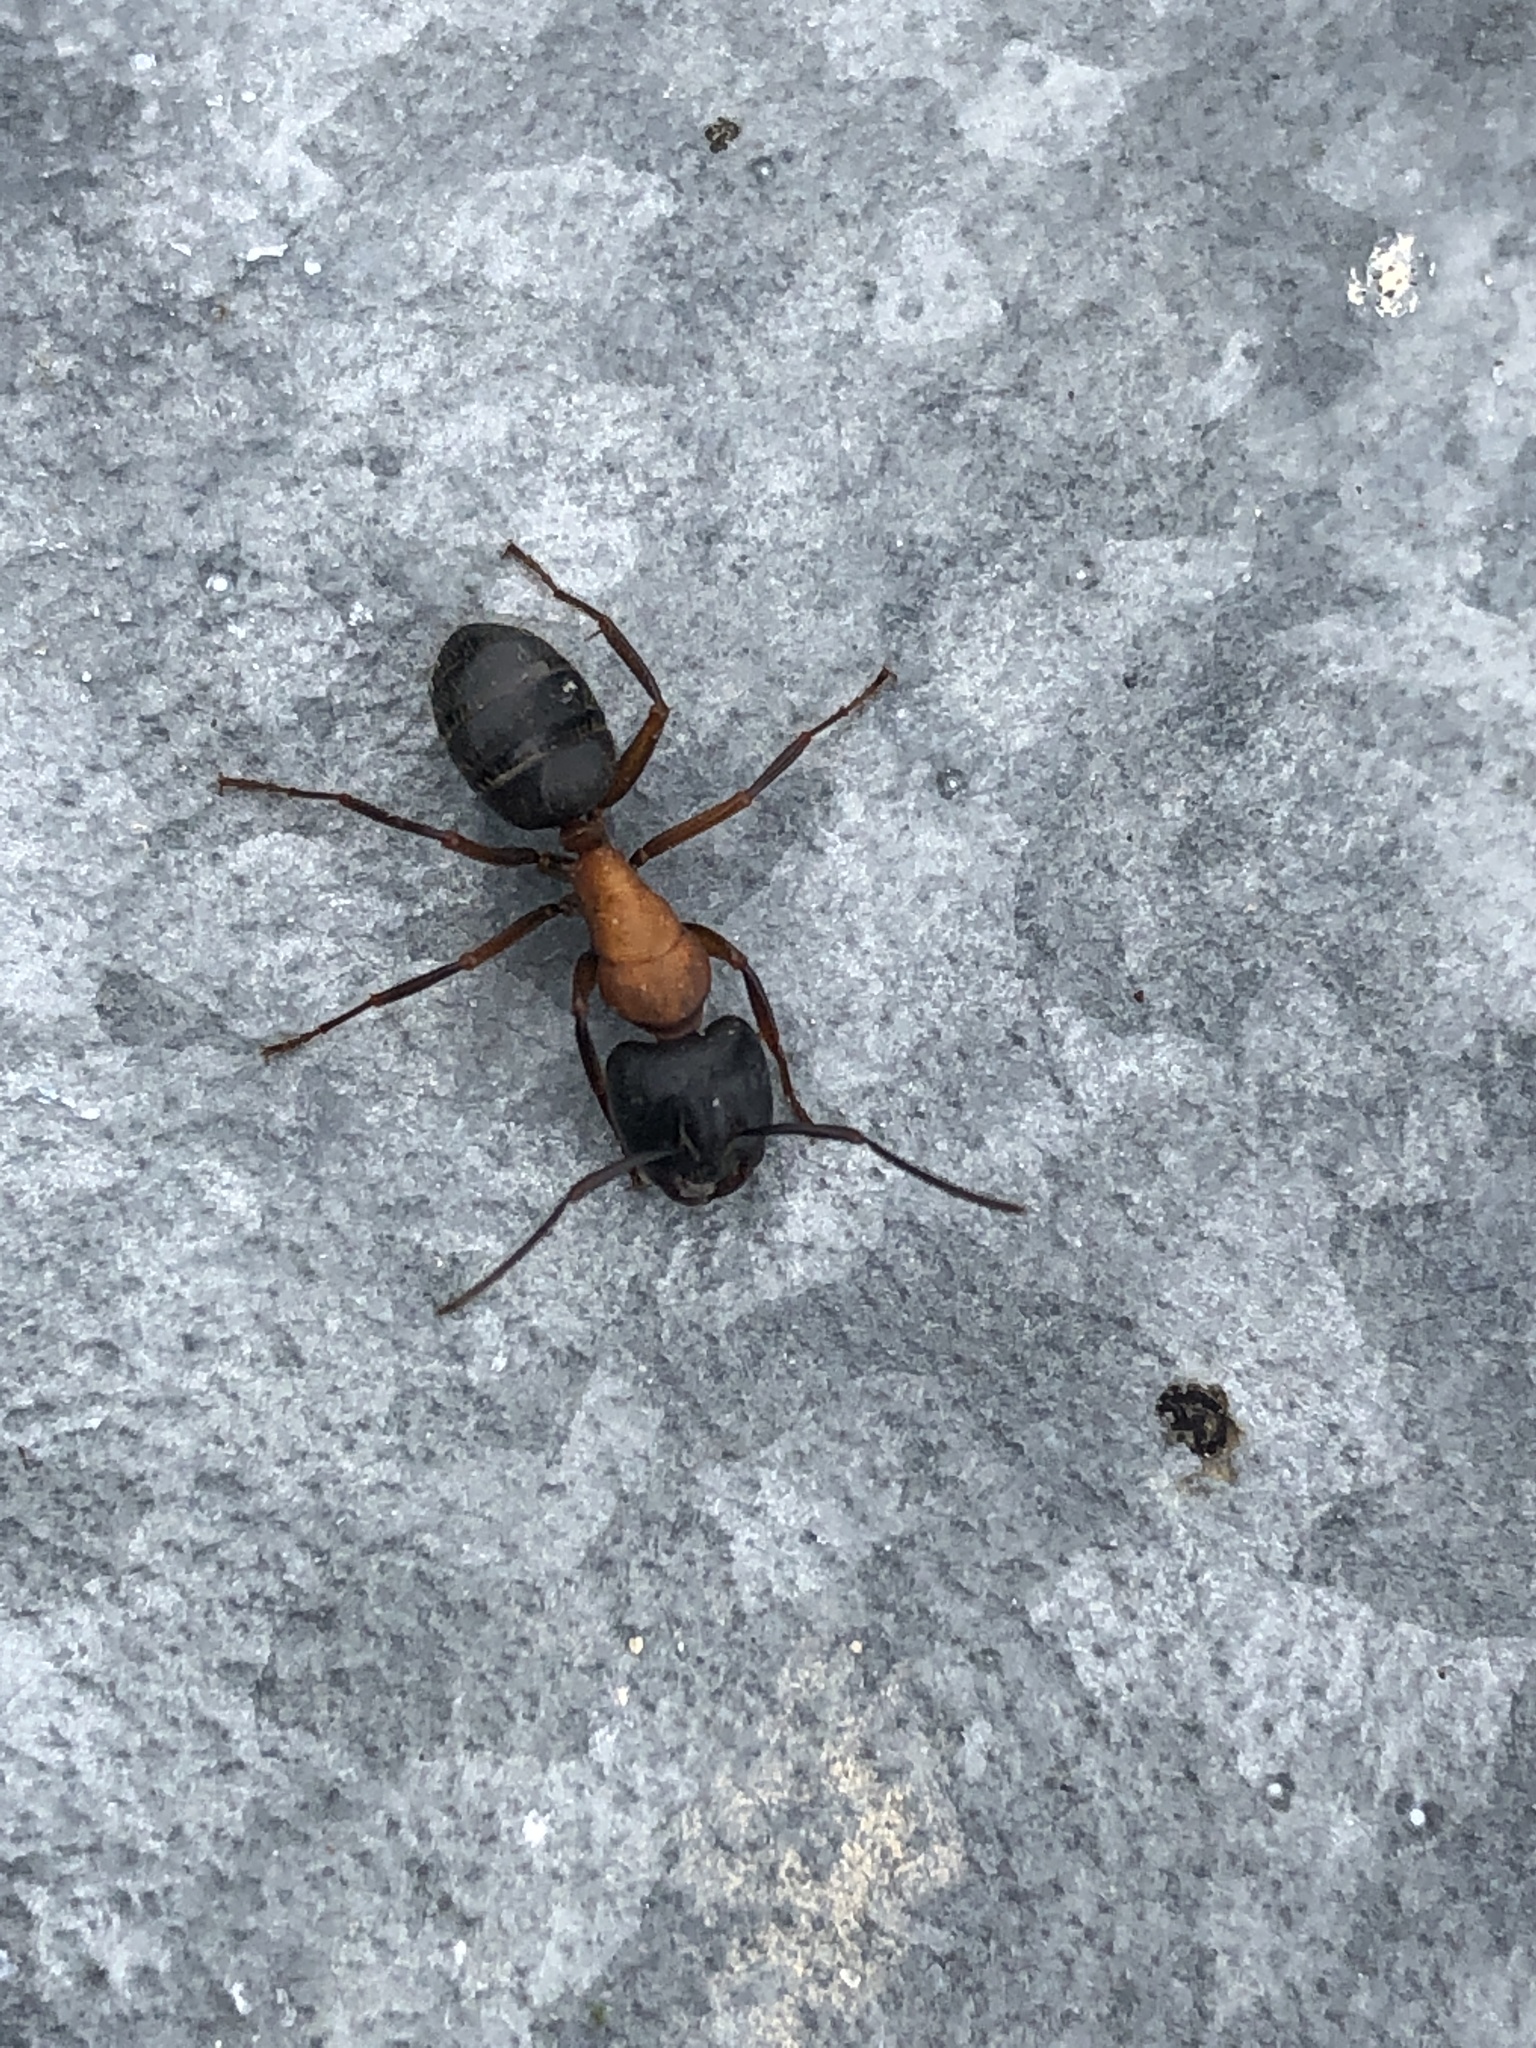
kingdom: Animalia
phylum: Arthropoda
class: Insecta
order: Hymenoptera
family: Formicidae
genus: Camponotus
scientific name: Camponotus novaeboracensis
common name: New york carpenter ant
